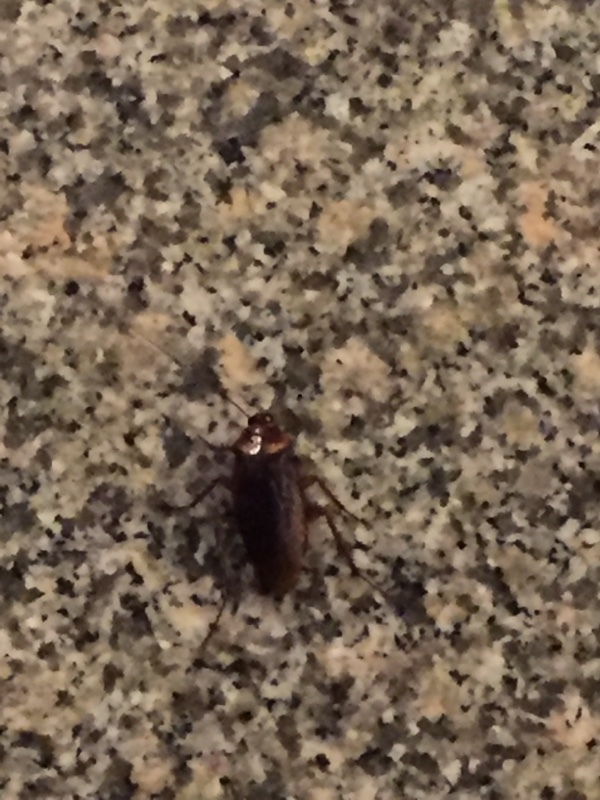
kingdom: Animalia
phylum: Arthropoda
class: Insecta
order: Blattodea
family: Blattidae
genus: Periplaneta
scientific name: Periplaneta americana
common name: American cockroach
